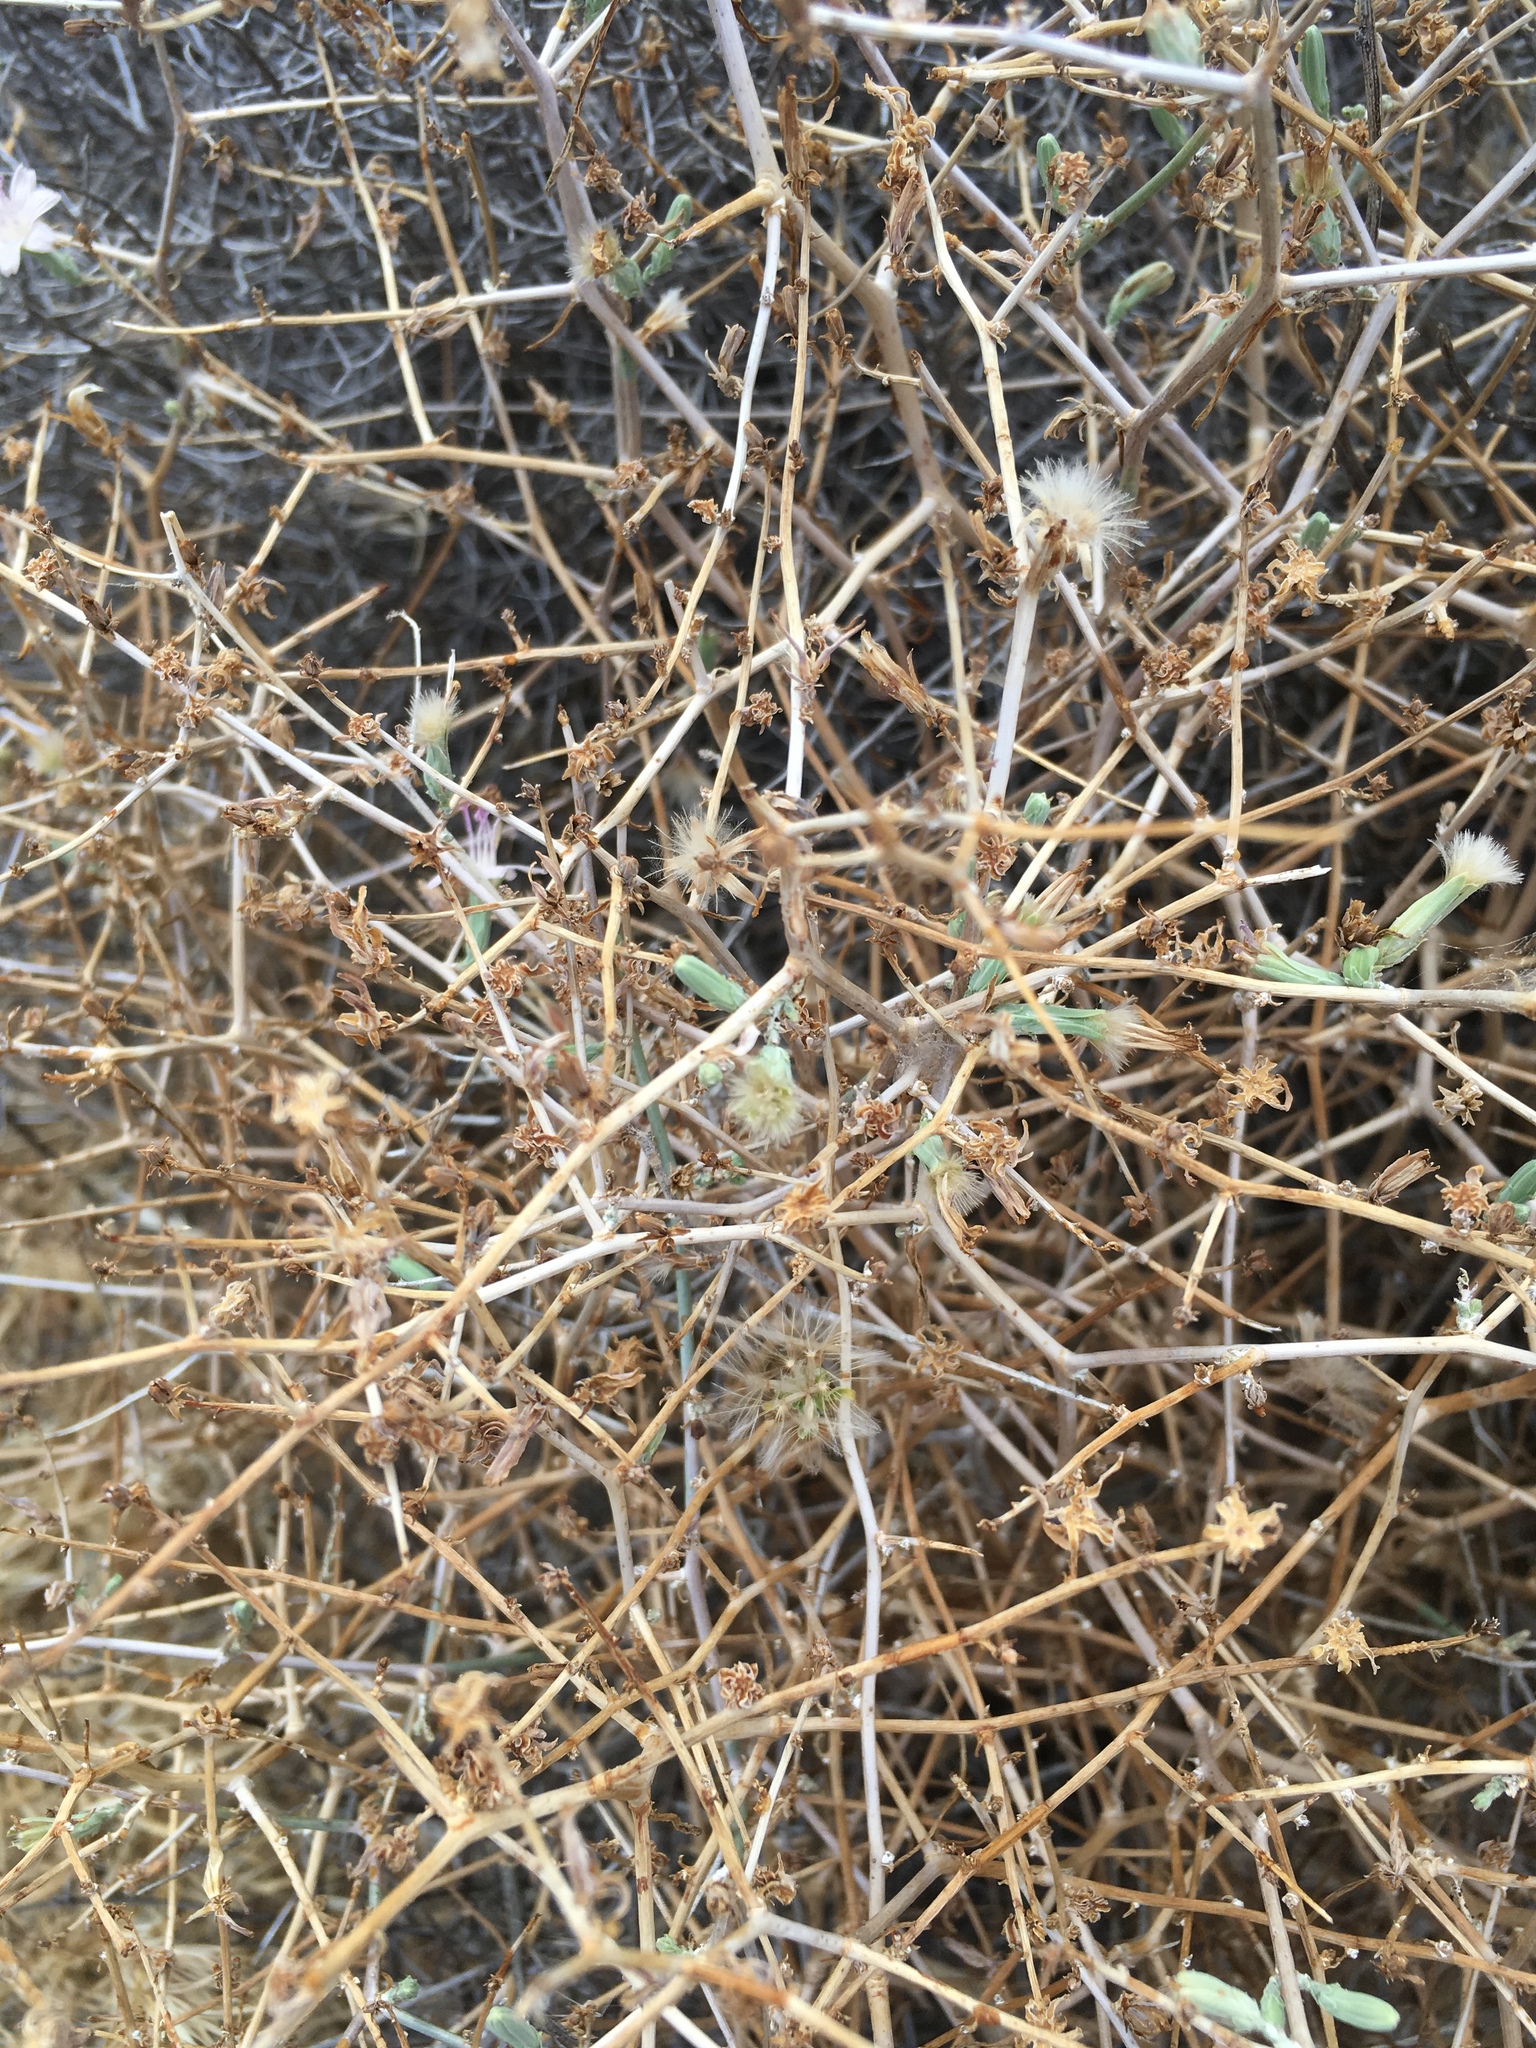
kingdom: Plantae
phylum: Tracheophyta
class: Magnoliopsida
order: Asterales
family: Asteraceae
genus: Stephanomeria
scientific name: Stephanomeria pauciflora
